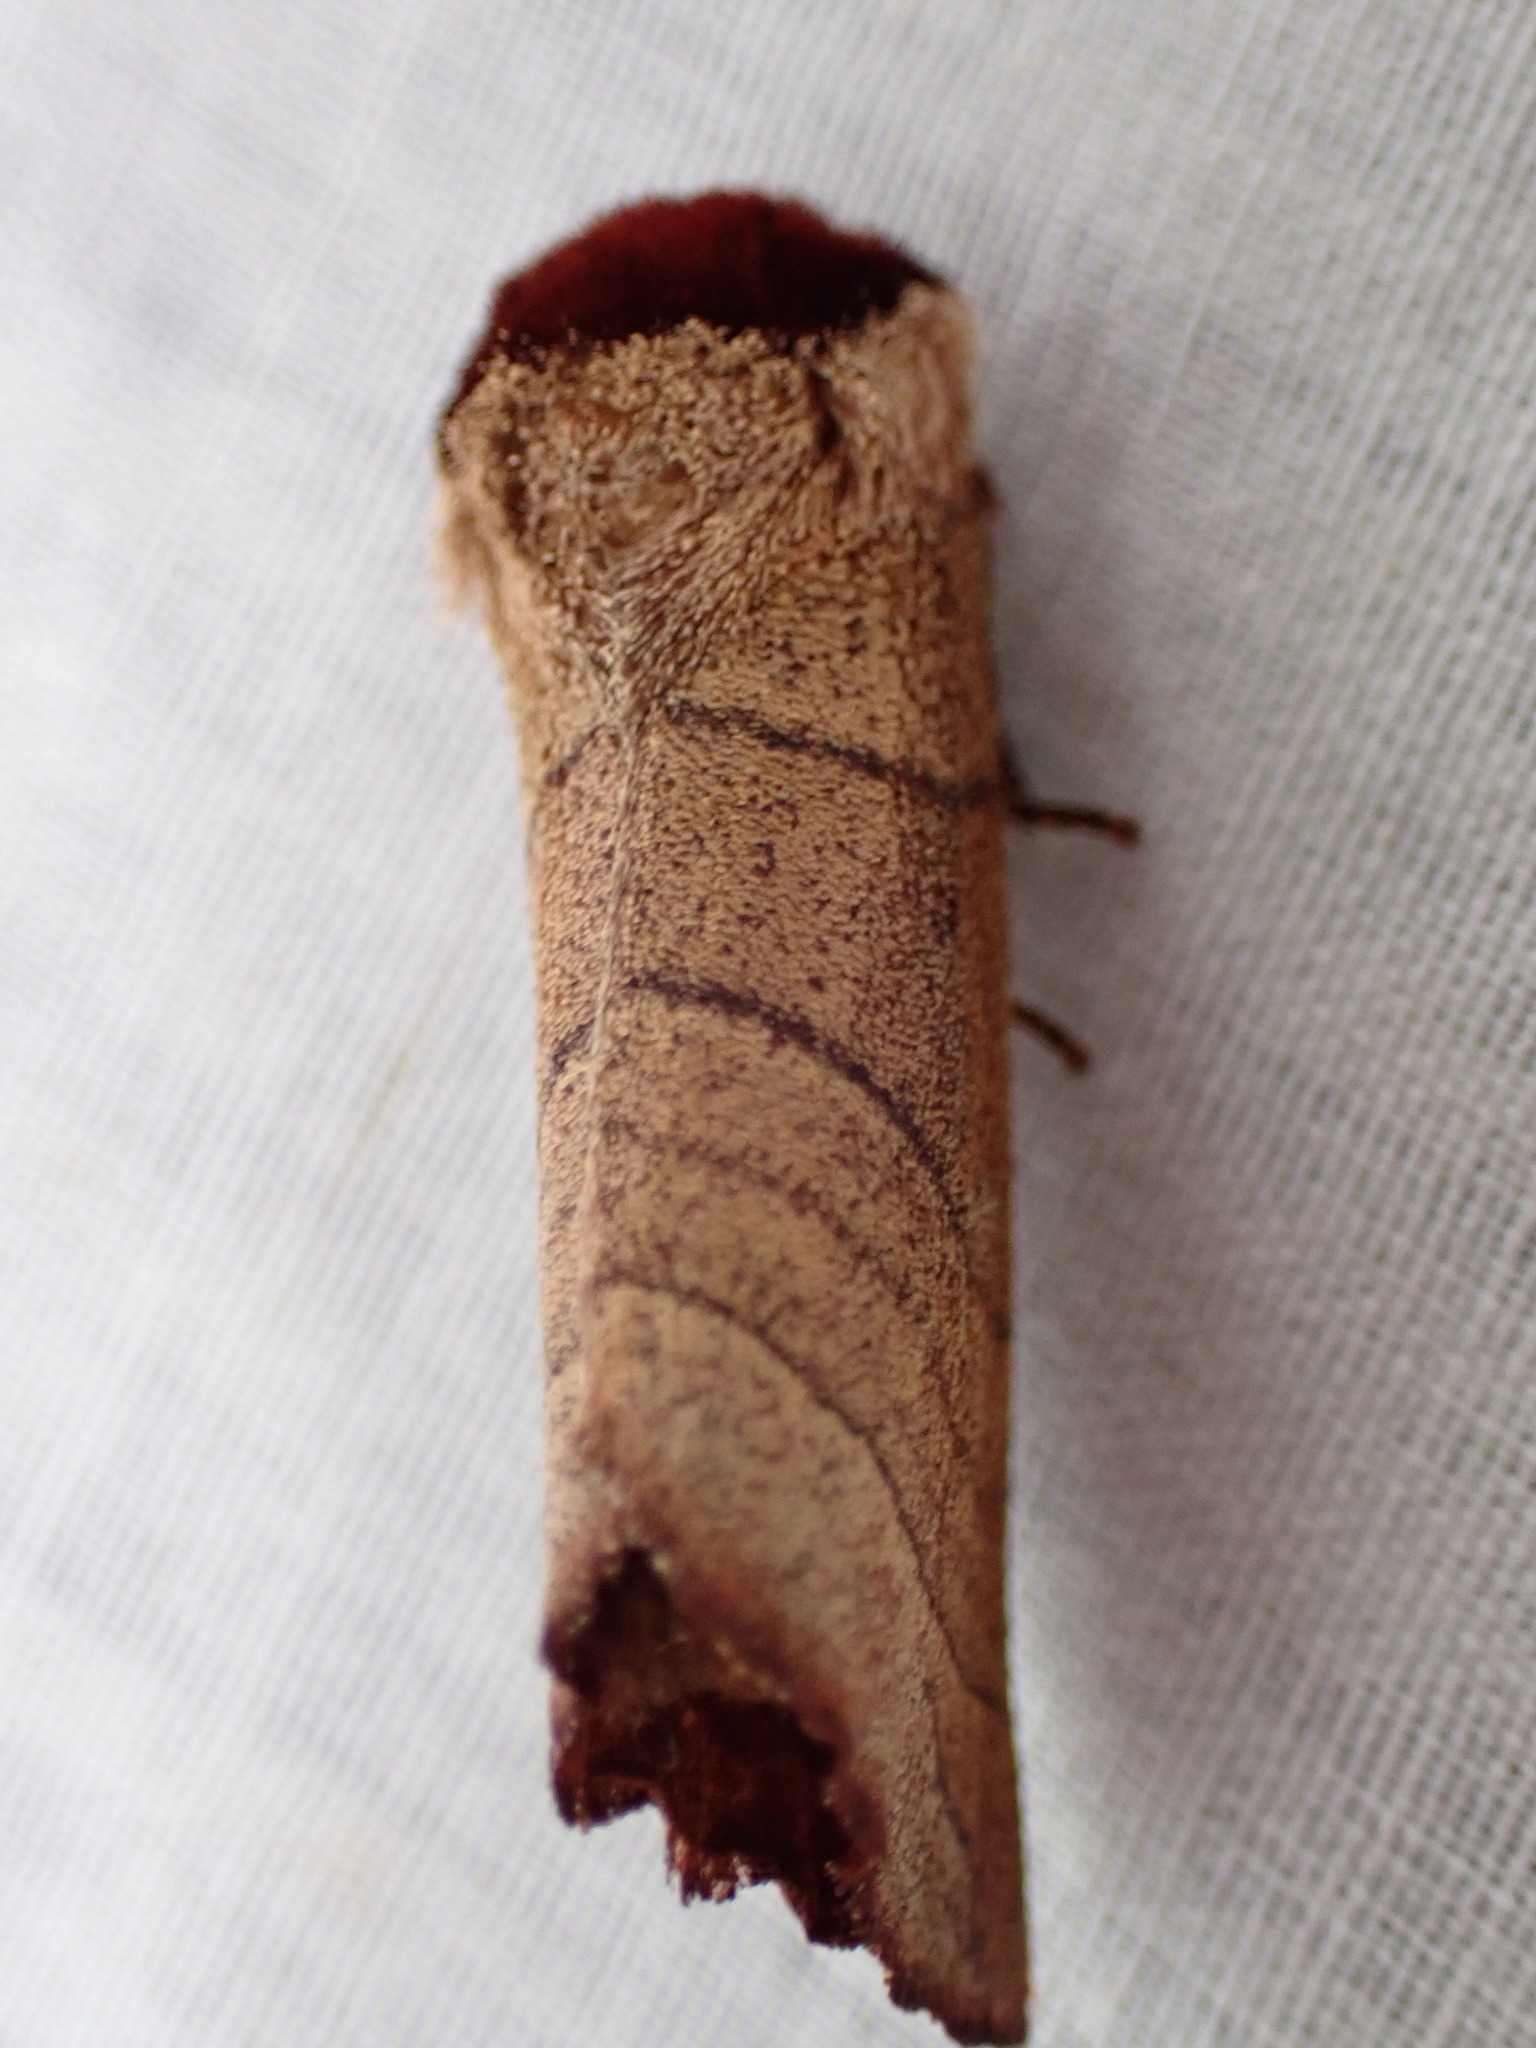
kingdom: Animalia
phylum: Arthropoda
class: Insecta
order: Lepidoptera
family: Notodontidae
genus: Datana
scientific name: Datana ministra
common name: Yellow-necked caterpillar moth
